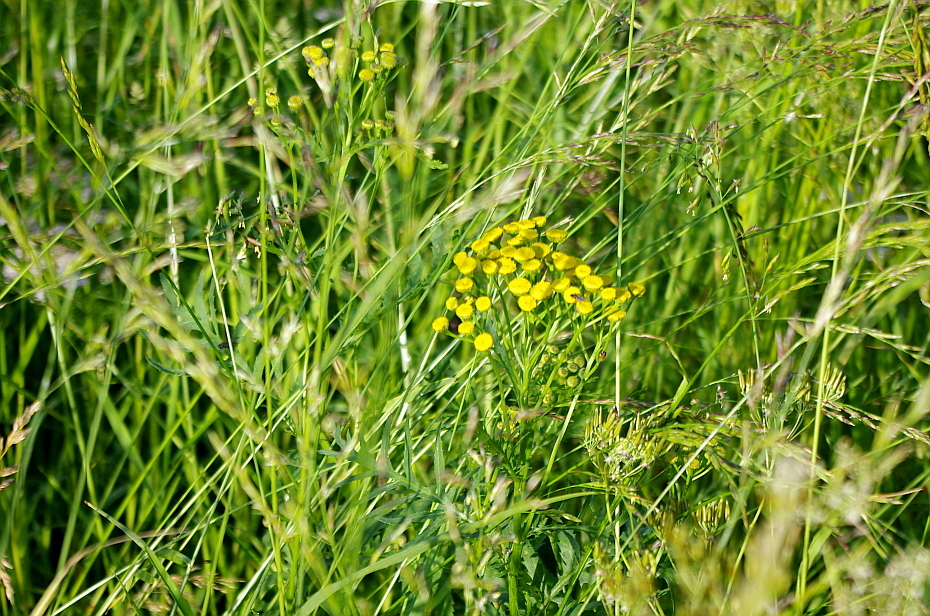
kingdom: Plantae
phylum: Tracheophyta
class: Magnoliopsida
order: Asterales
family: Asteraceae
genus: Tanacetum
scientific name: Tanacetum vulgare
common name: Common tansy
